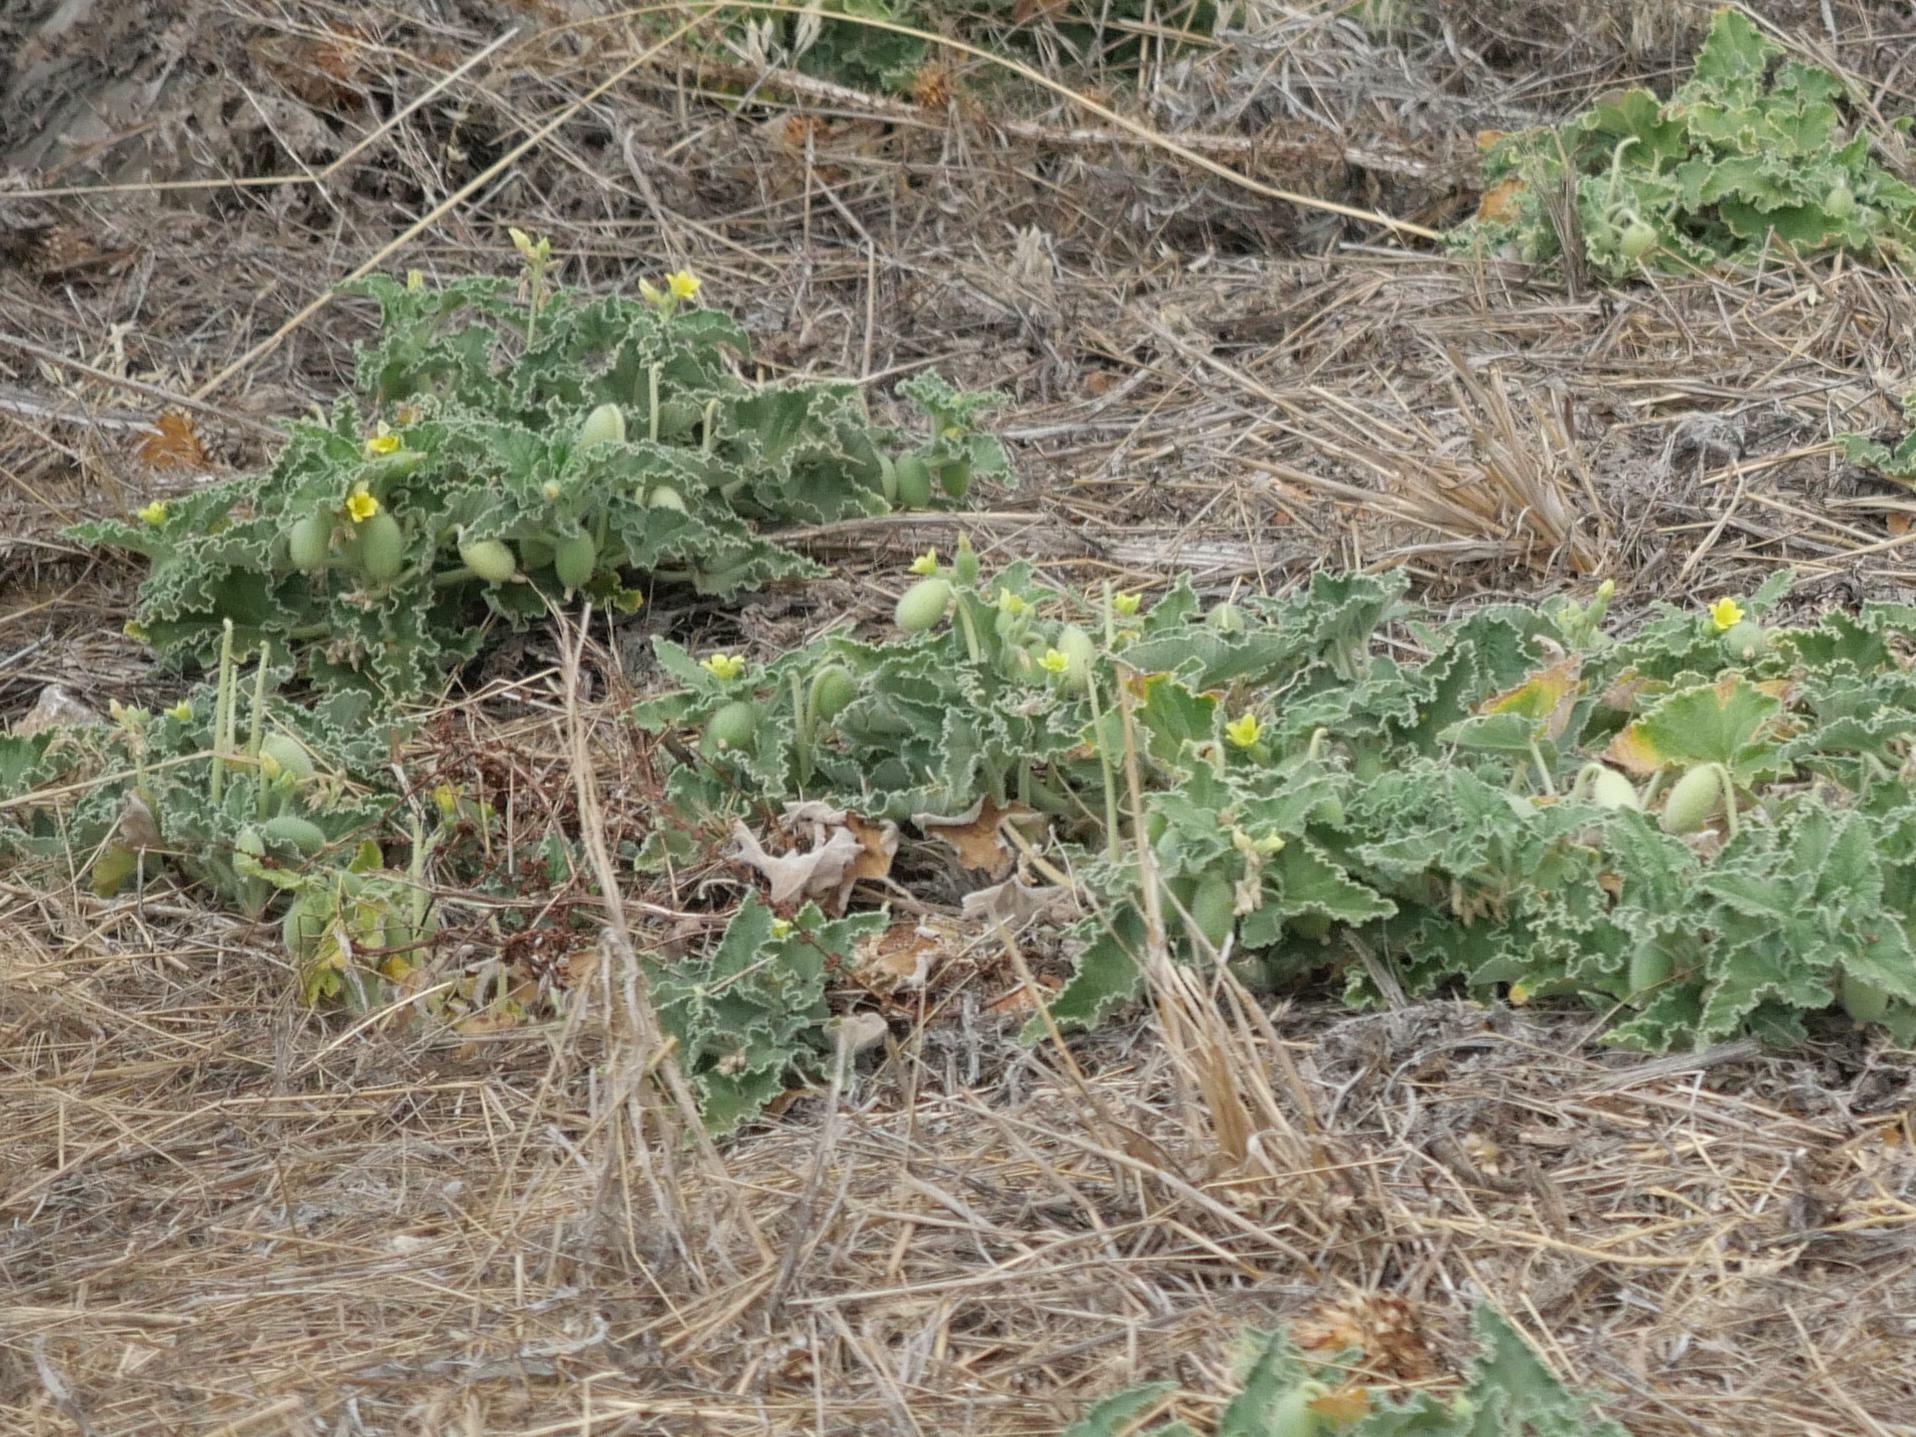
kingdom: Plantae
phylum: Tracheophyta
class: Magnoliopsida
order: Cucurbitales
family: Cucurbitaceae
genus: Ecballium
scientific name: Ecballium elaterium
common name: Squirting cucumber
